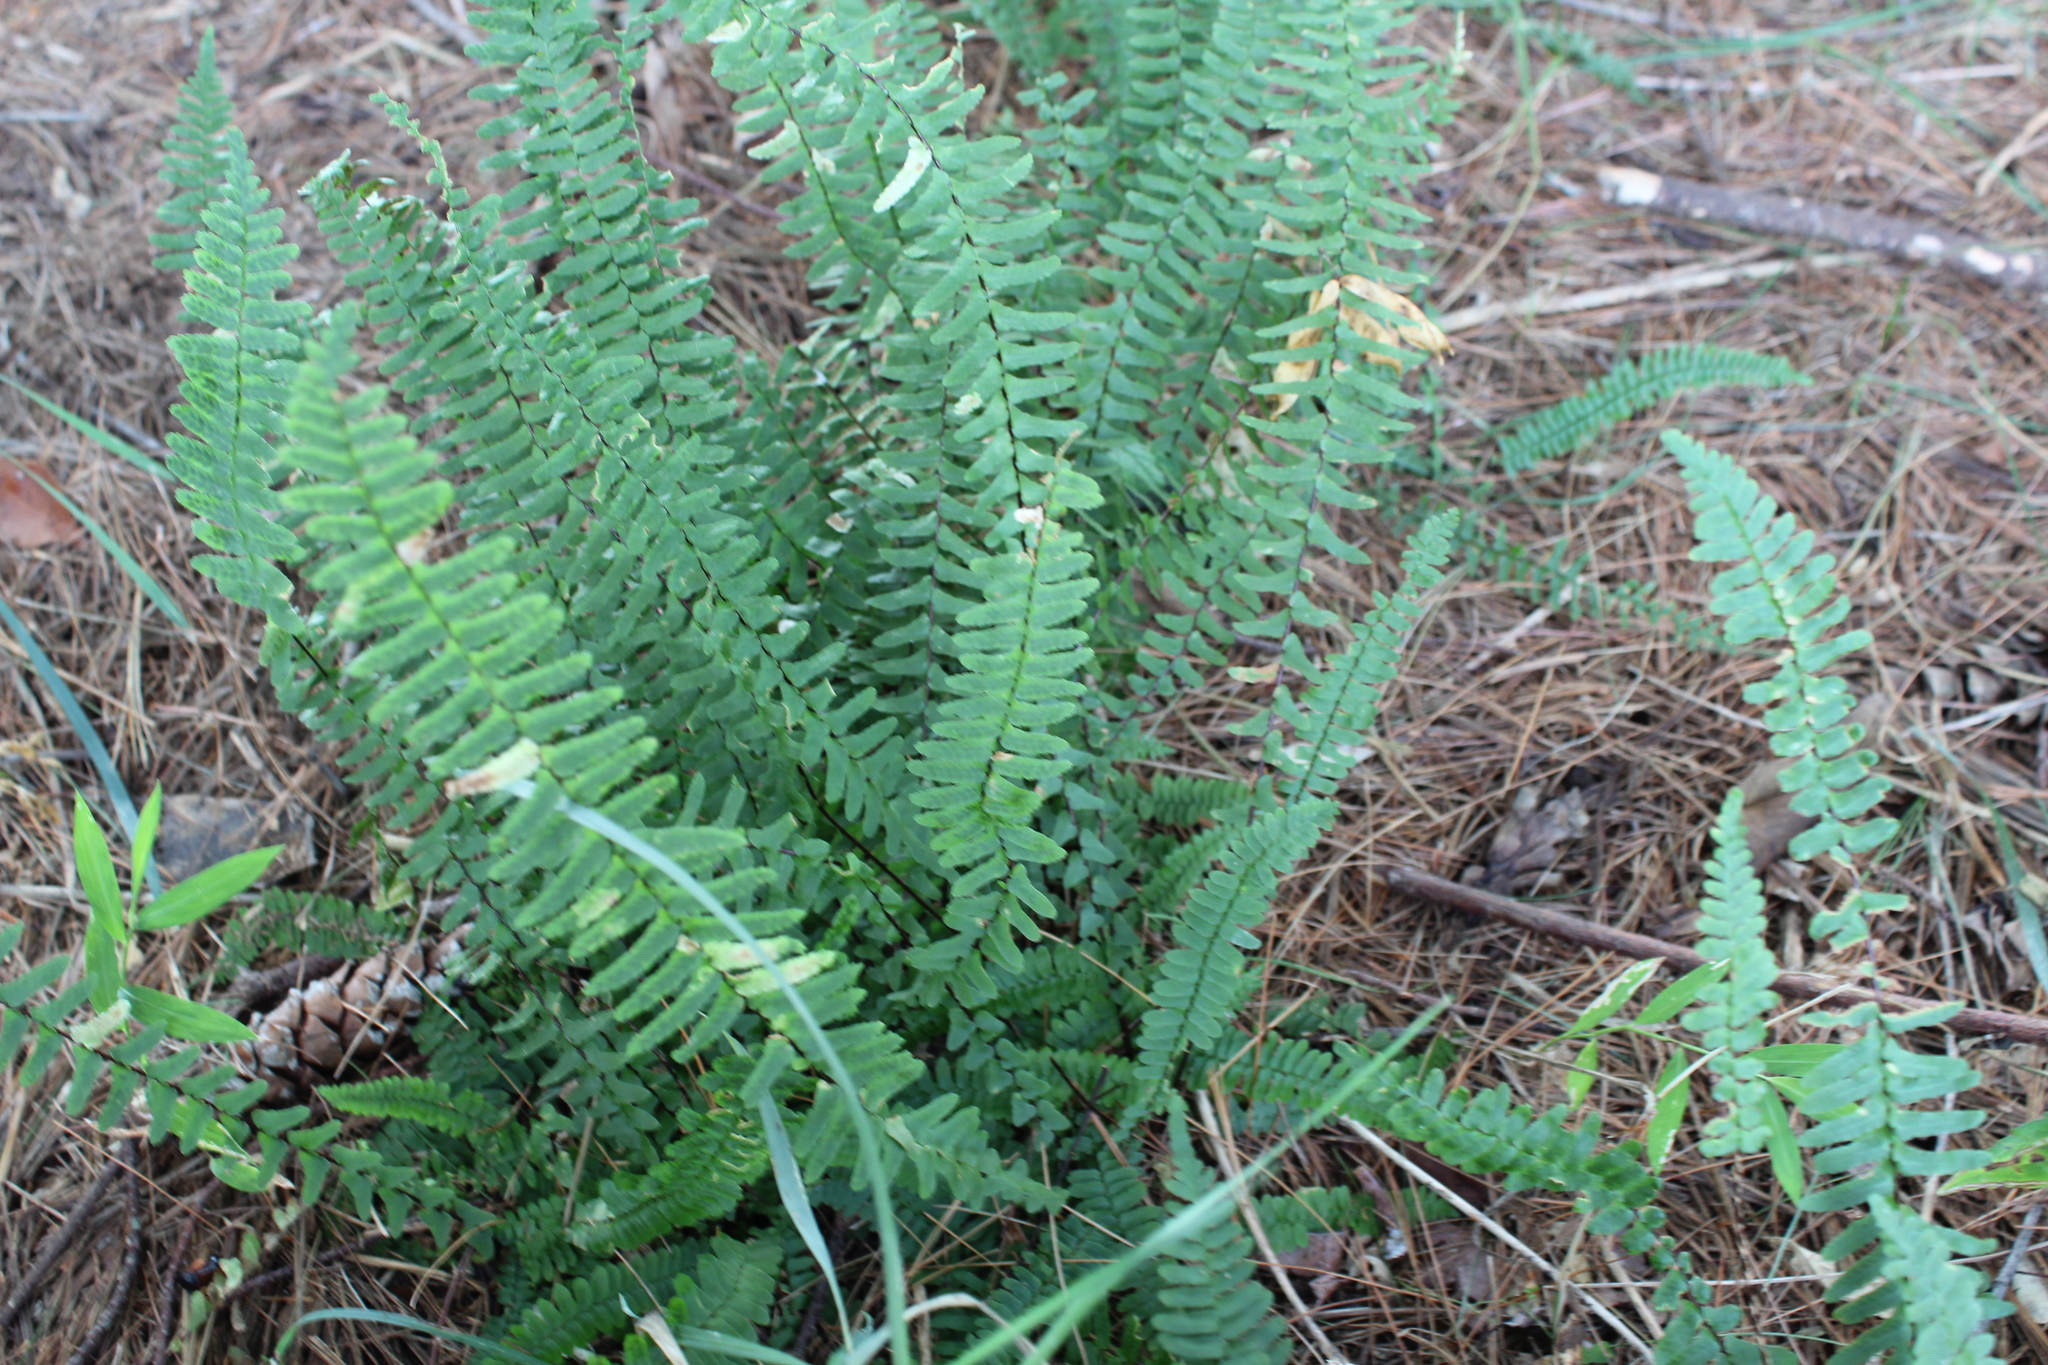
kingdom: Plantae
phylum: Tracheophyta
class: Polypodiopsida
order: Polypodiales
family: Aspleniaceae
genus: Asplenium
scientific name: Asplenium platyneuron
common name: Ebony spleenwort
